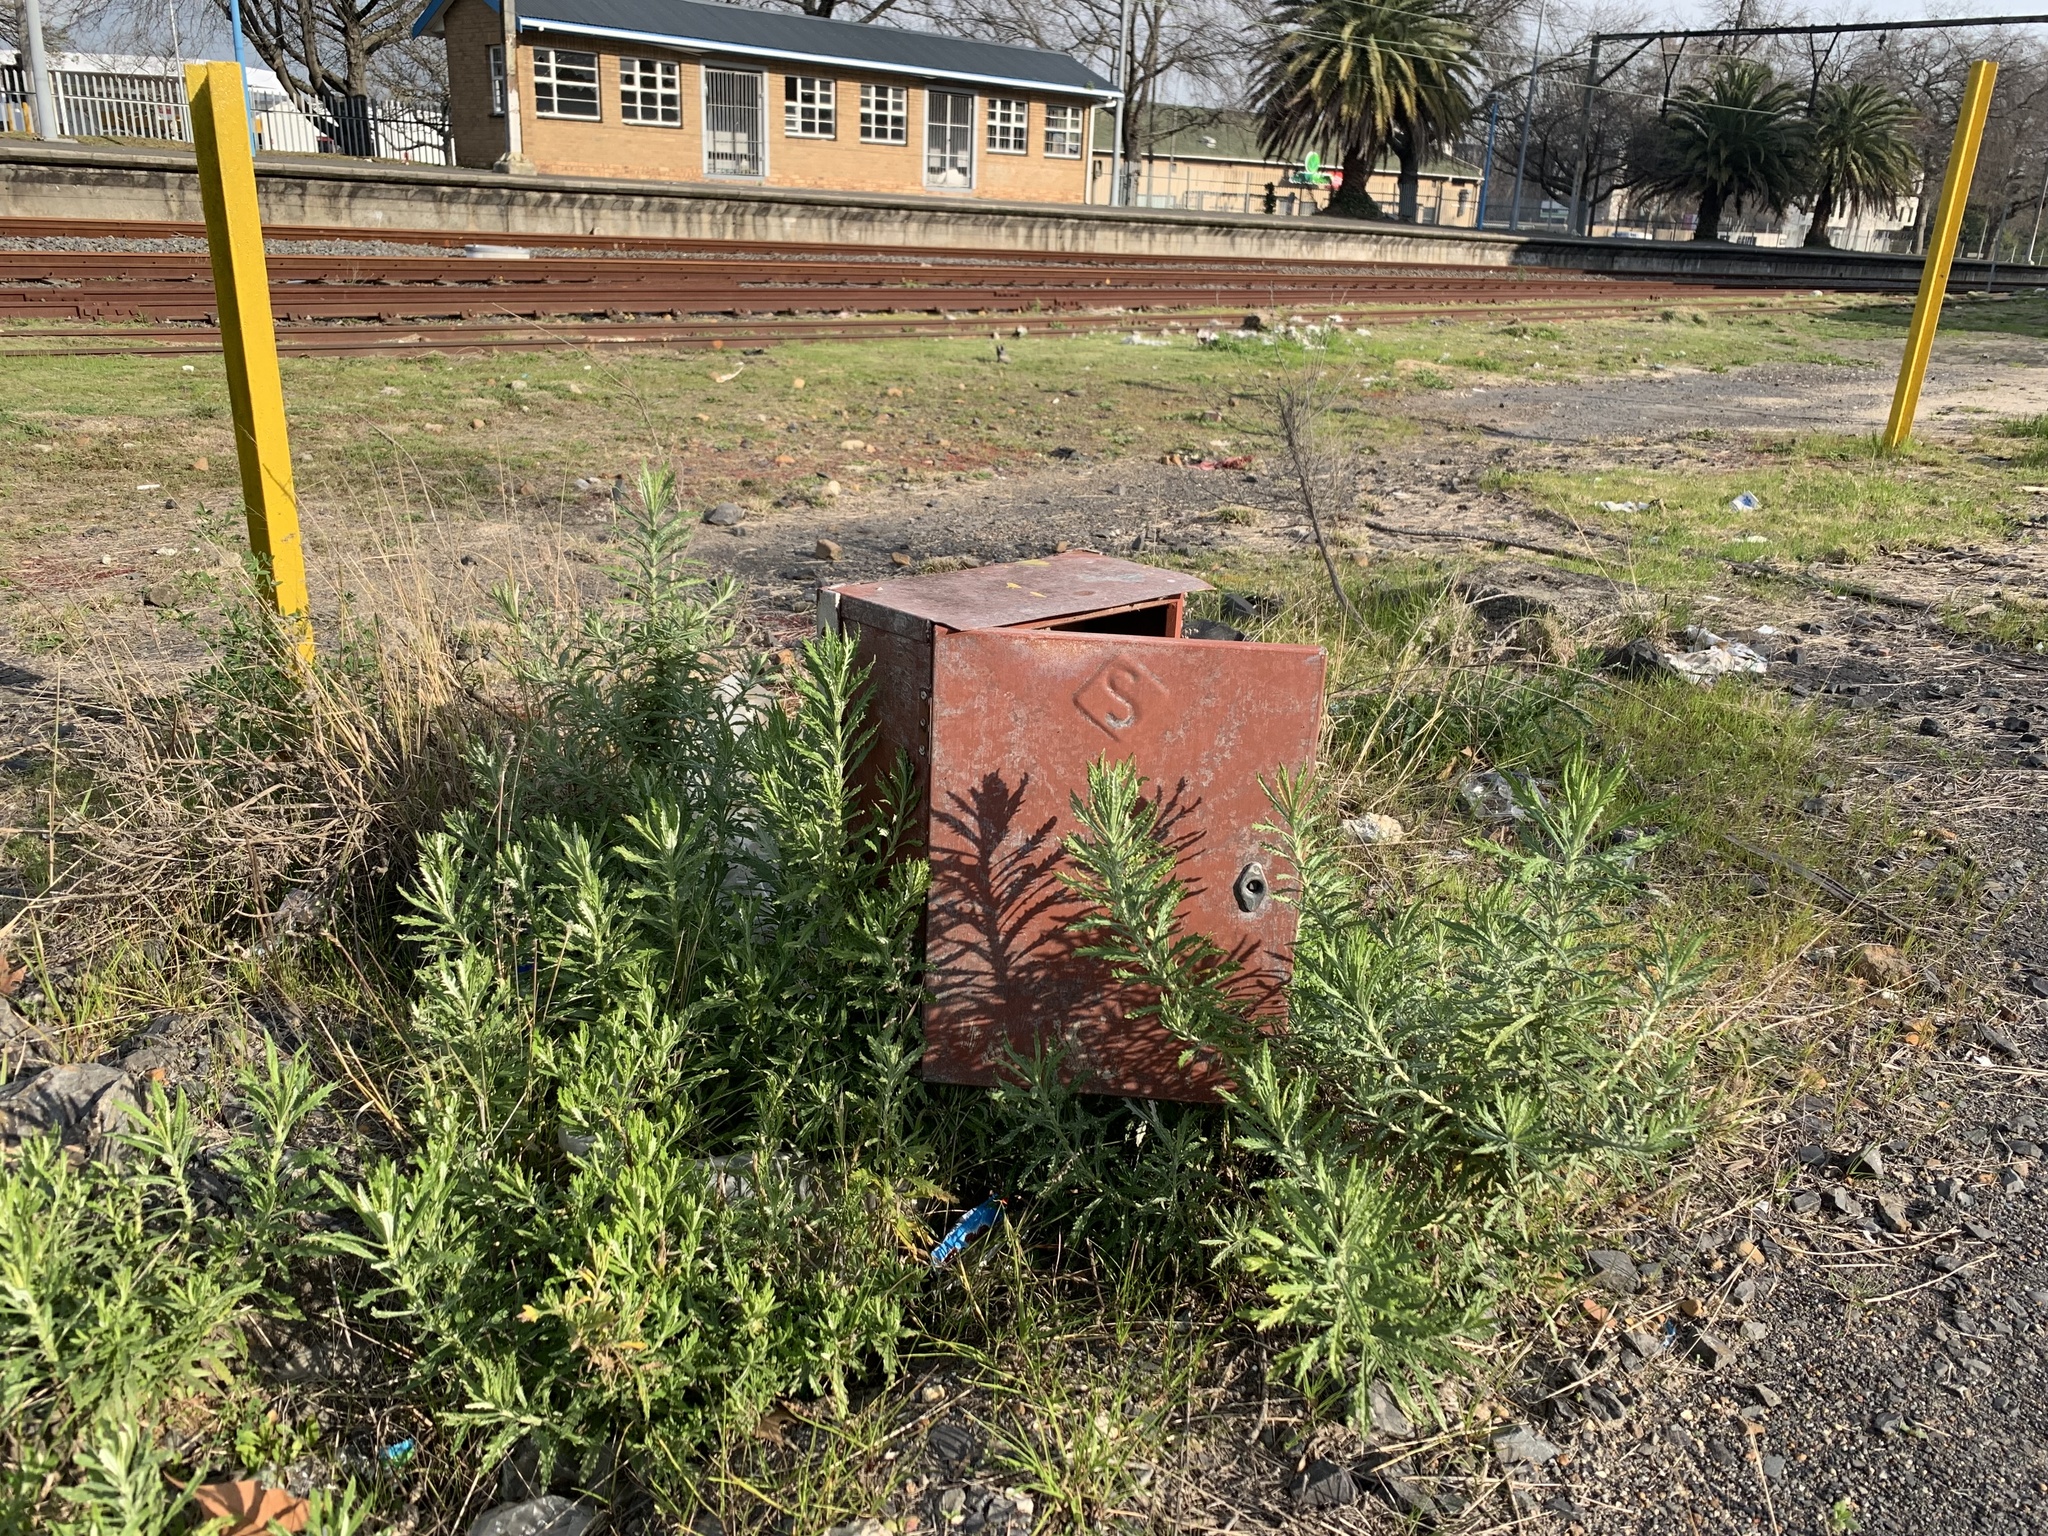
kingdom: Plantae
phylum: Tracheophyta
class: Magnoliopsida
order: Asterales
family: Asteraceae
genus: Senecio
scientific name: Senecio pterophorus
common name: Shoddy ragwort
